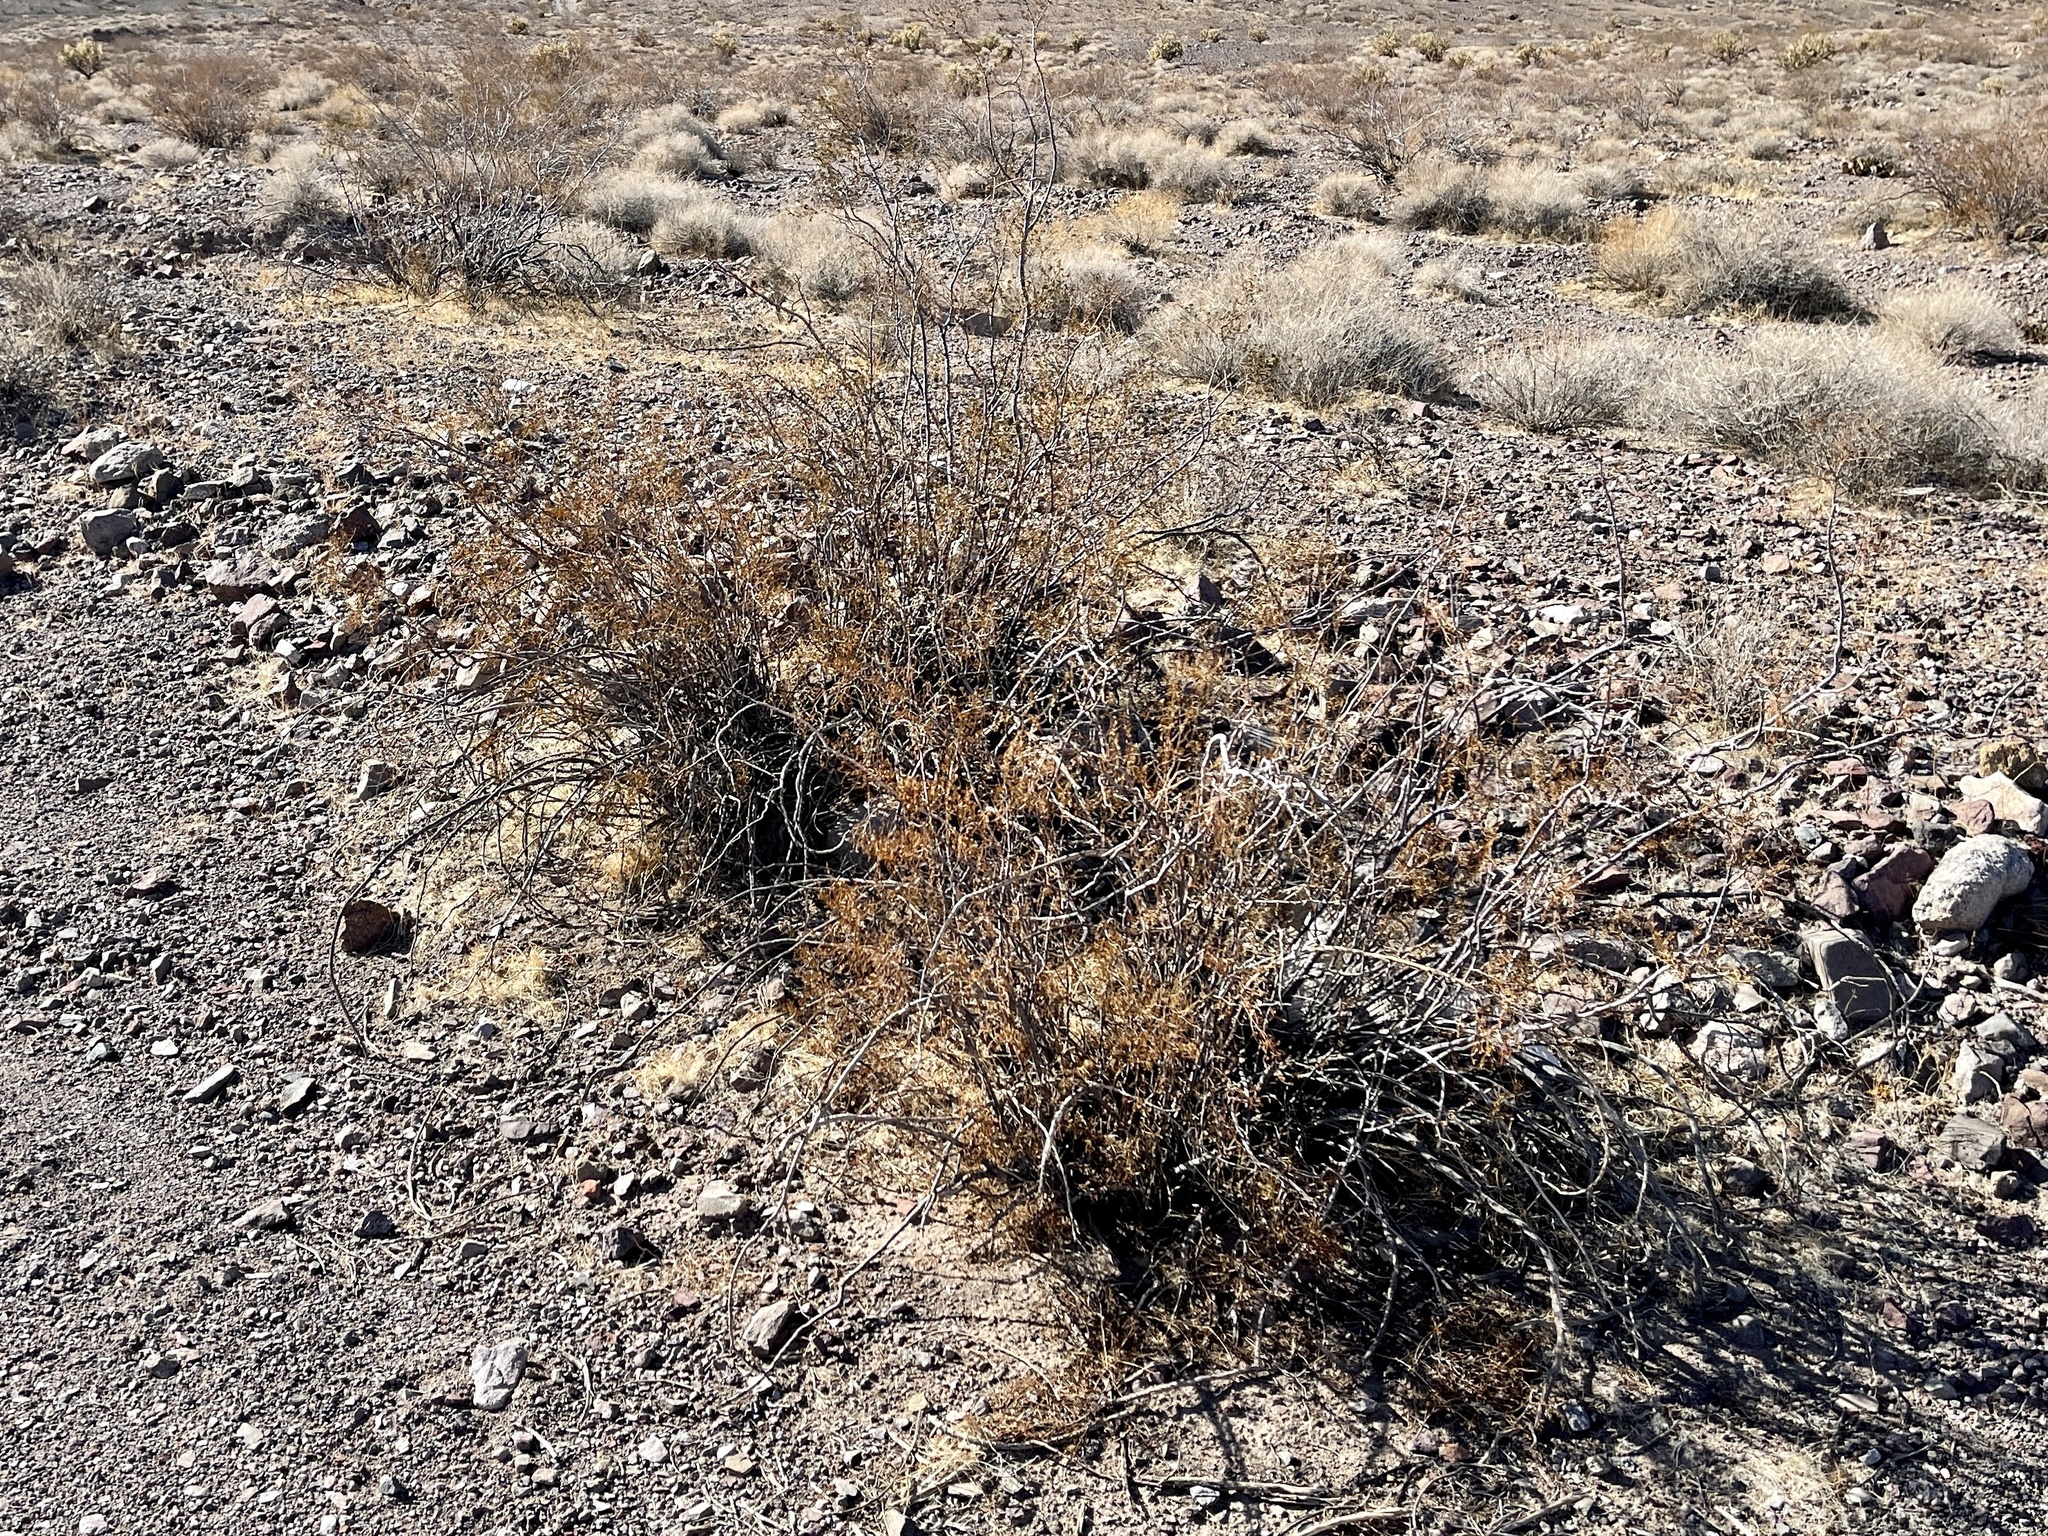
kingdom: Plantae
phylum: Tracheophyta
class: Magnoliopsida
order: Zygophyllales
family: Zygophyllaceae
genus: Larrea
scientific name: Larrea tridentata
